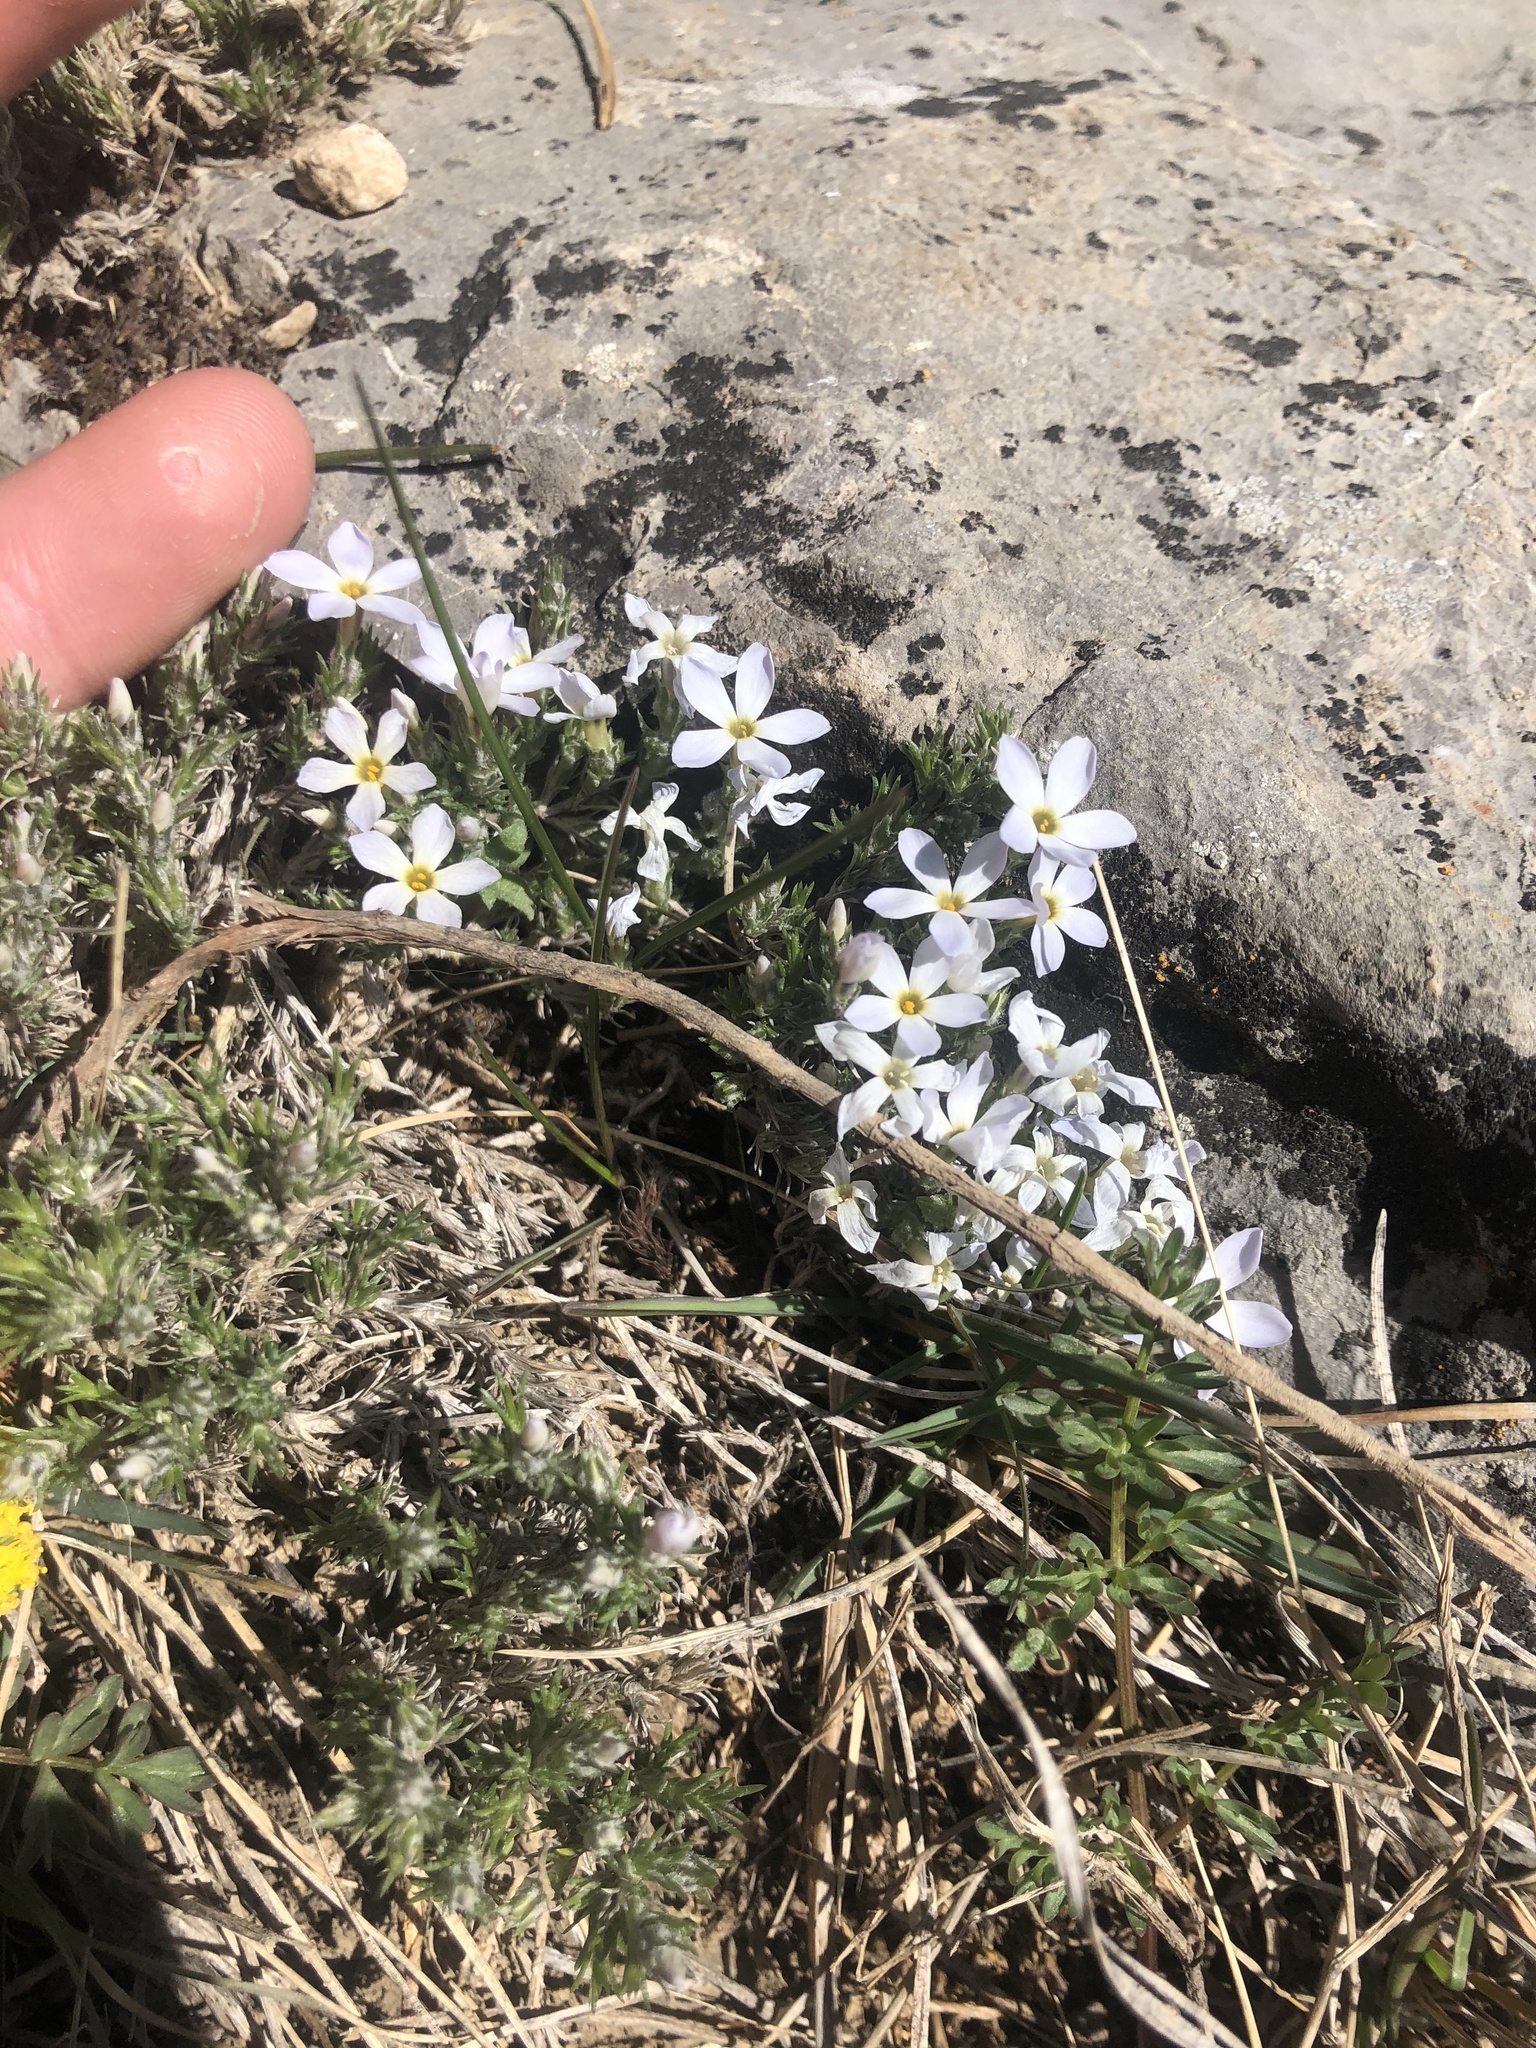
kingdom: Plantae
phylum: Tracheophyta
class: Magnoliopsida
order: Ericales
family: Polemoniaceae
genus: Phlox
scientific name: Phlox hoodii
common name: Moss phlox
